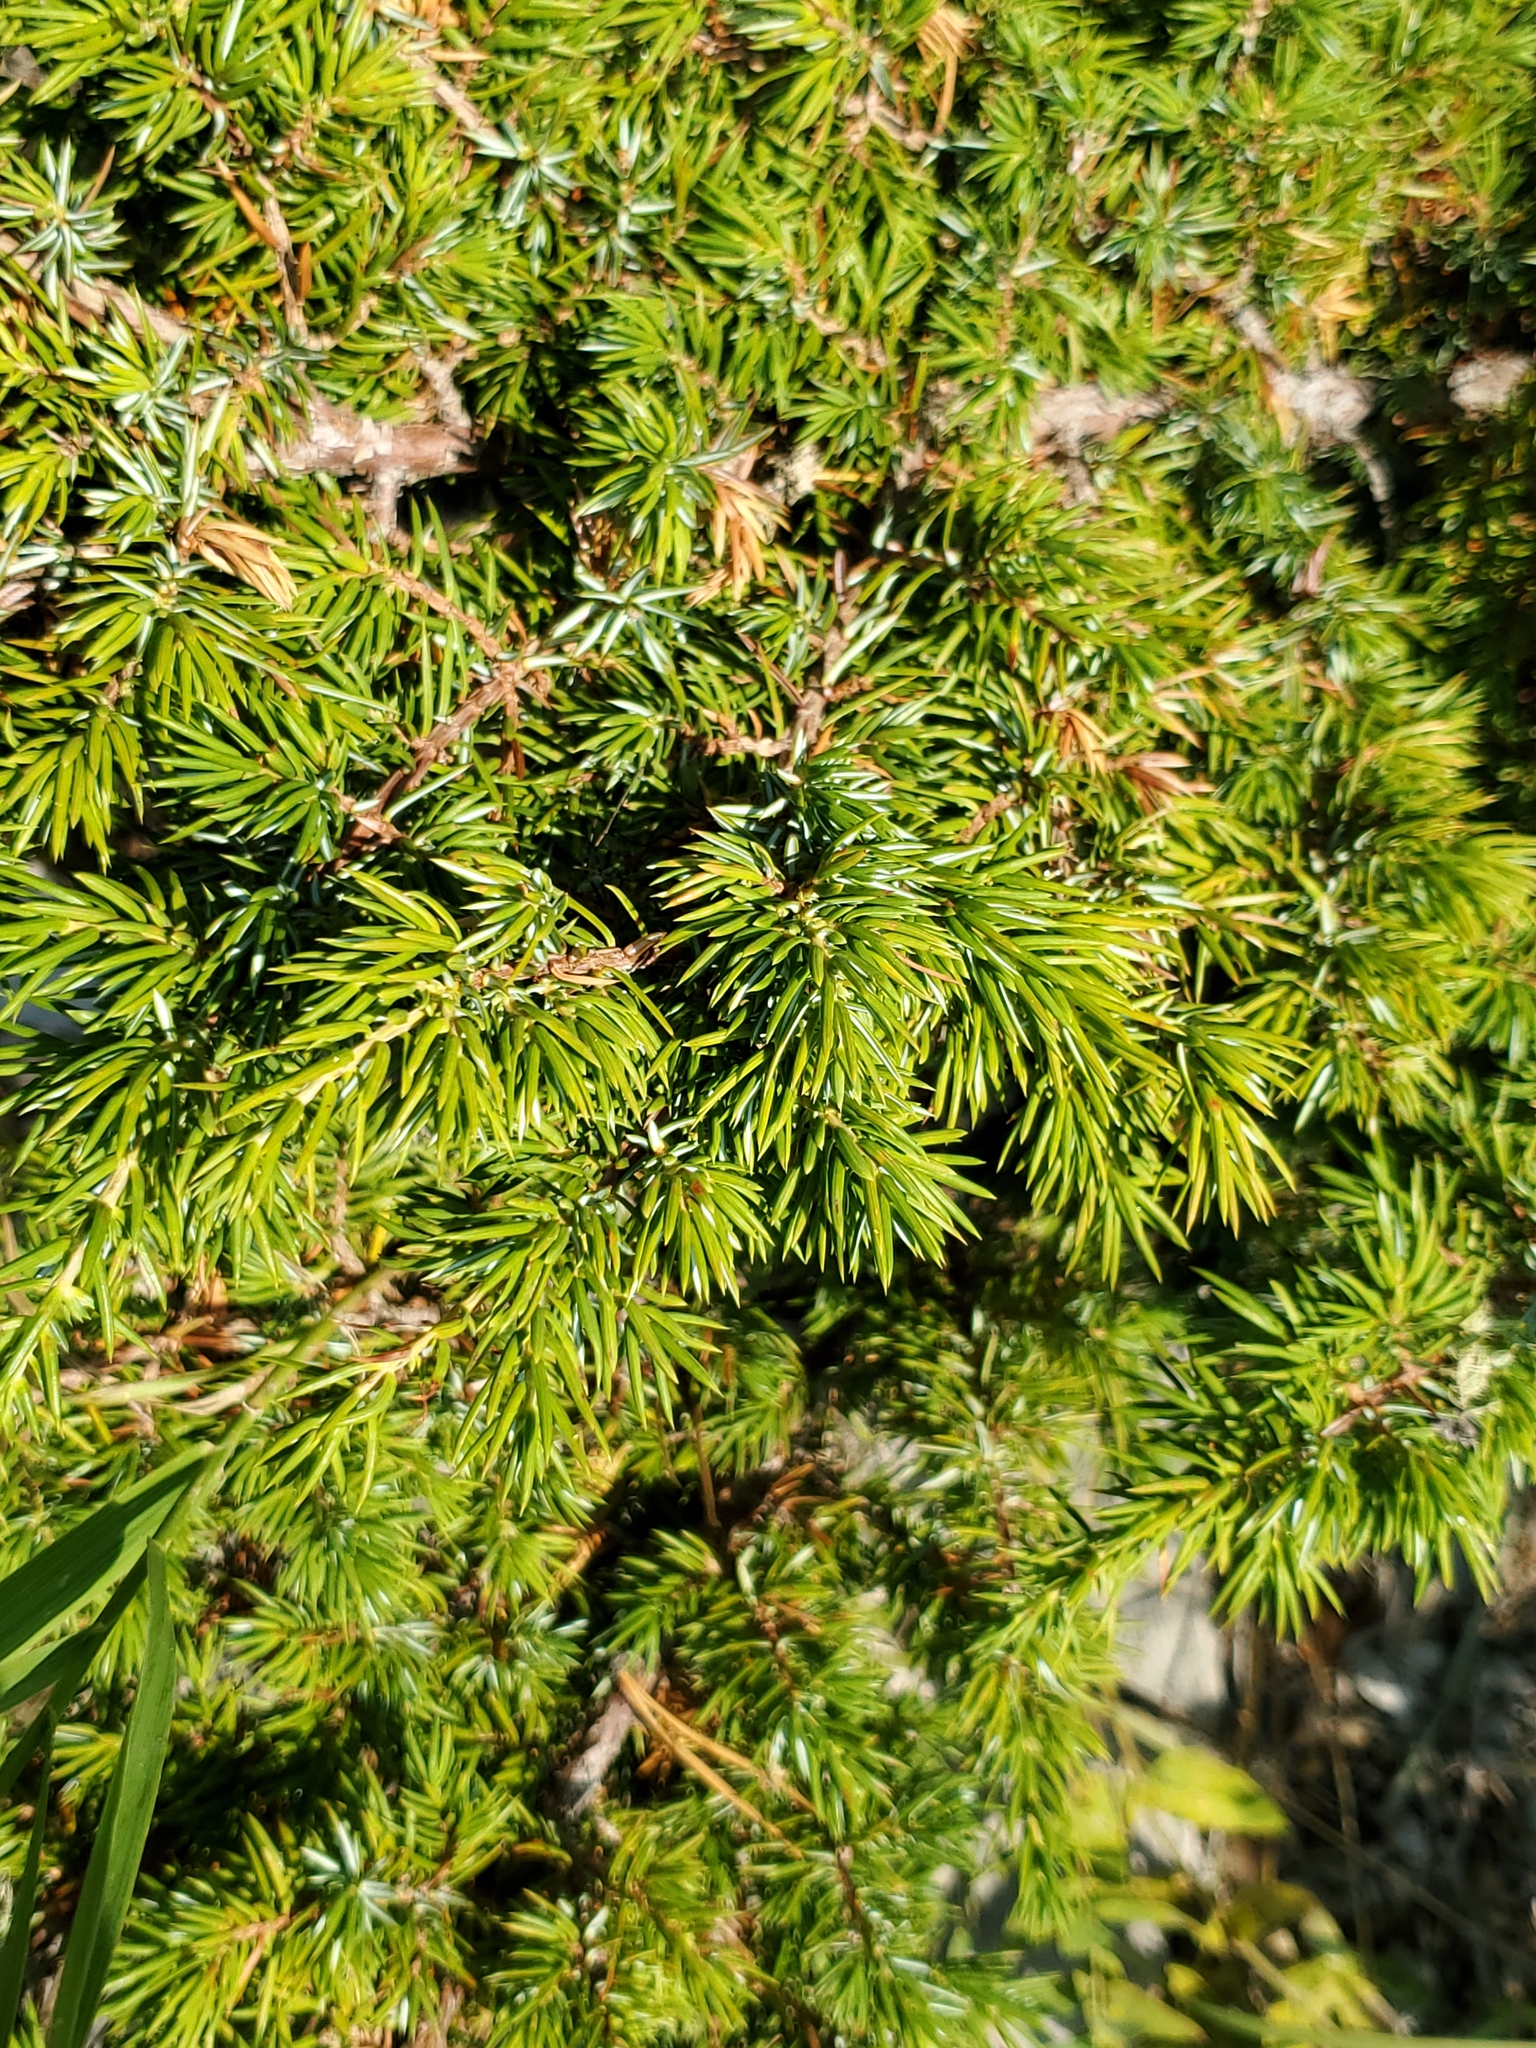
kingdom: Plantae
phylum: Tracheophyta
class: Pinopsida
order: Pinales
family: Cupressaceae
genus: Juniperus
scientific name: Juniperus communis
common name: Common juniper
